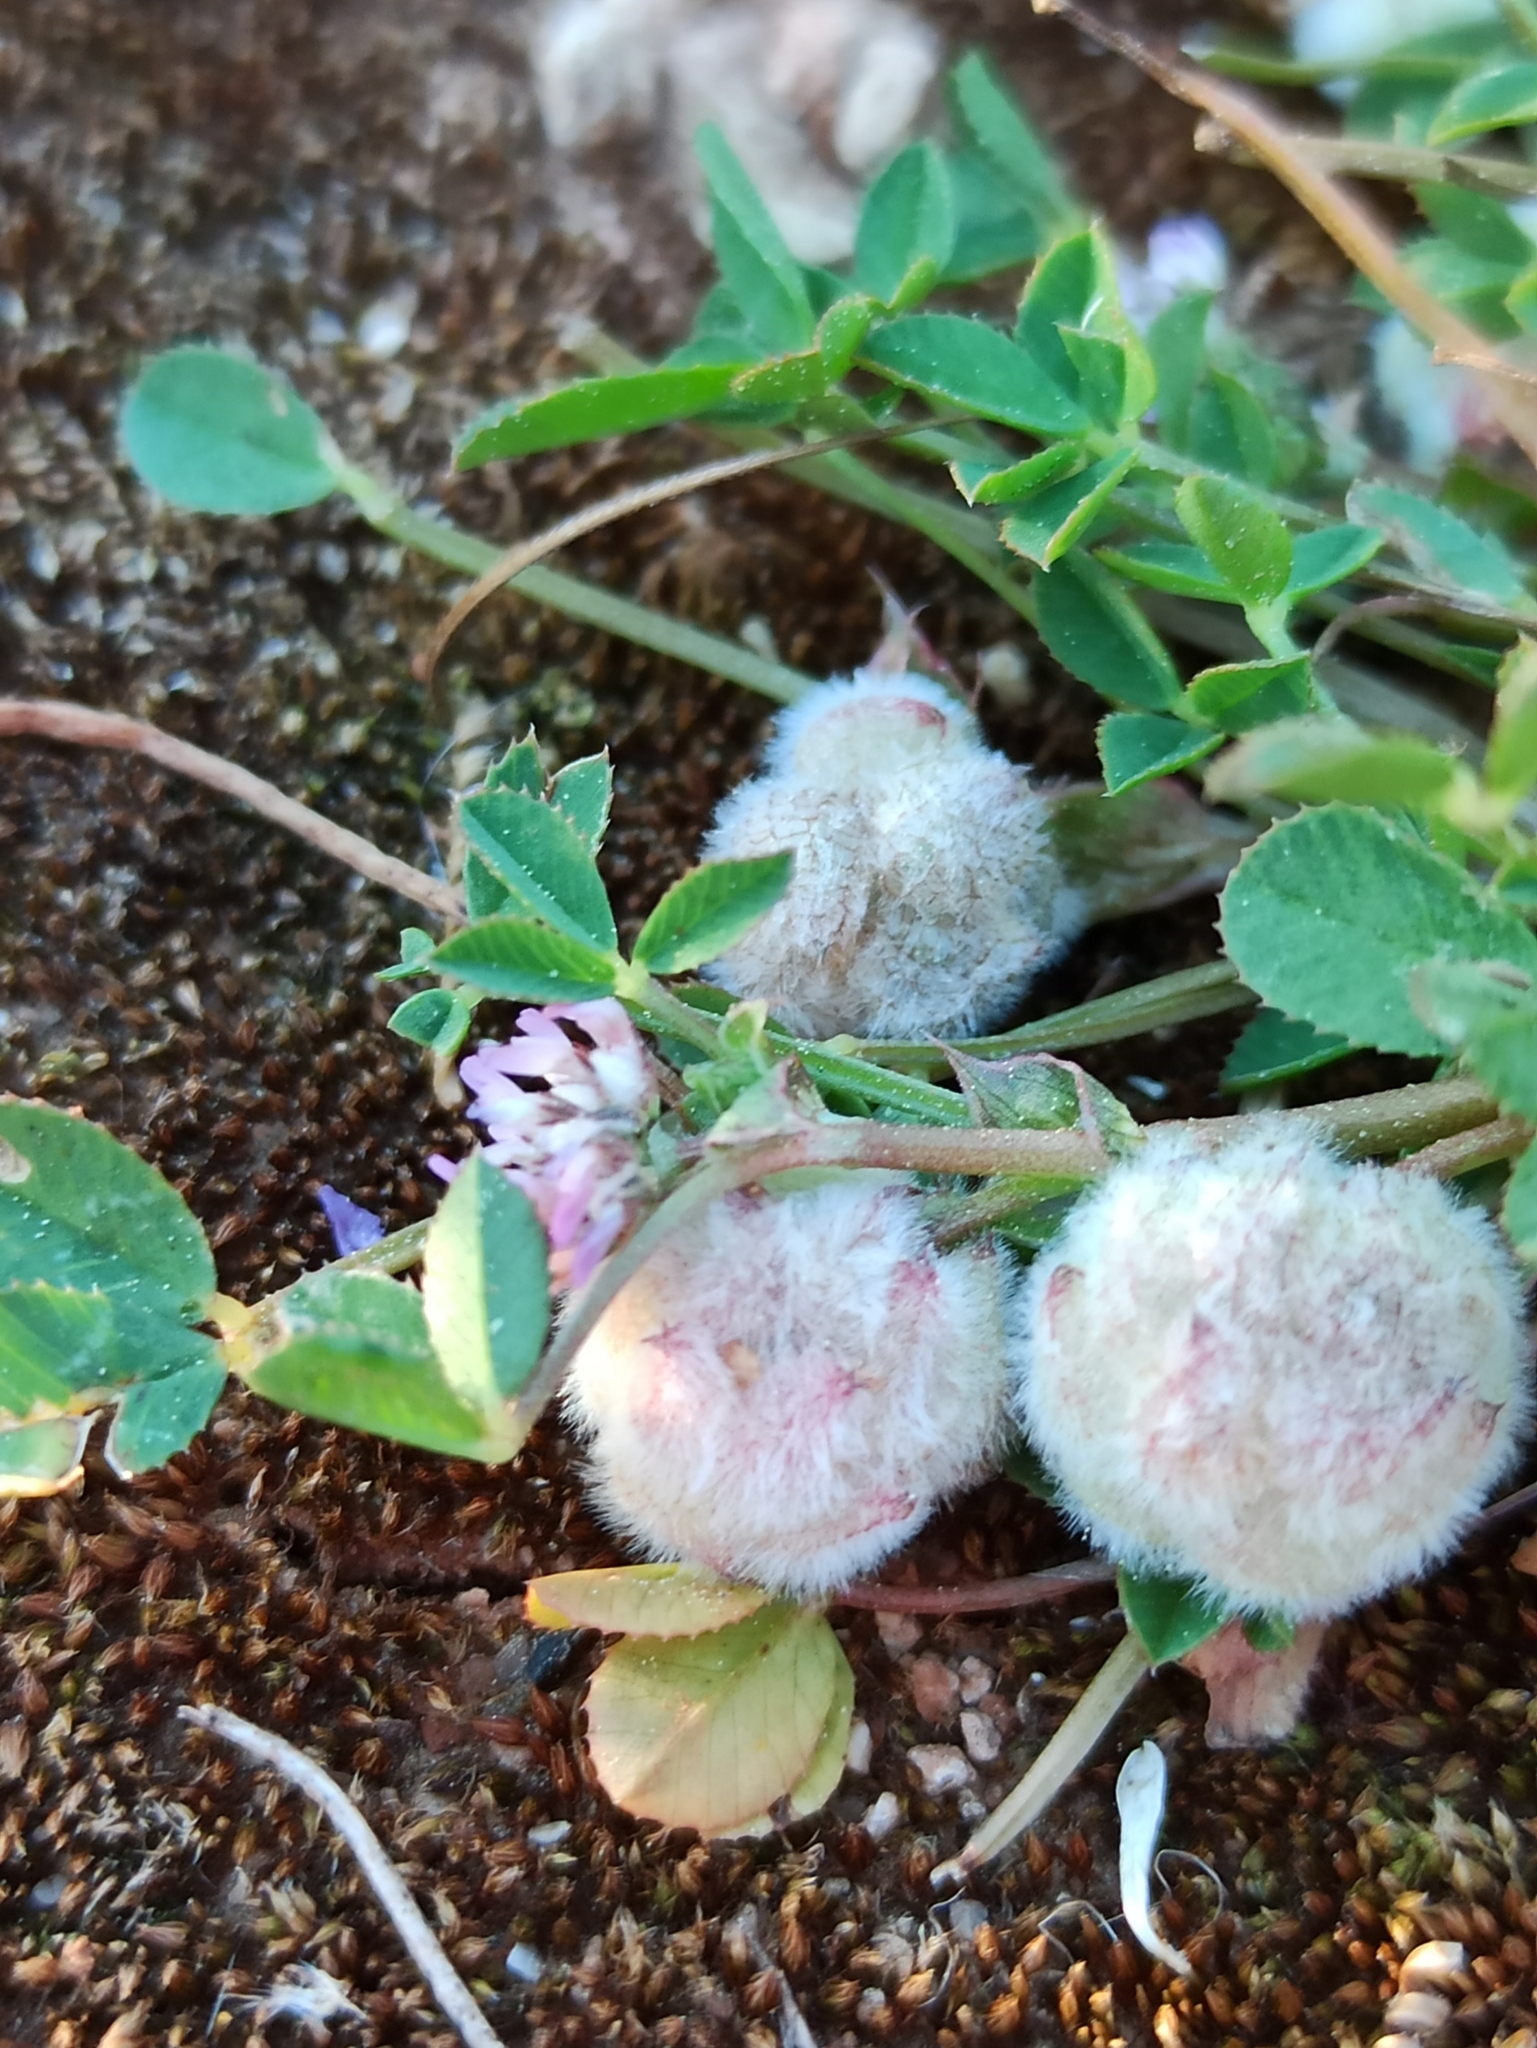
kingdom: Plantae
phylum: Tracheophyta
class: Magnoliopsida
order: Fabales
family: Fabaceae
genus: Trifolium
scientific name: Trifolium tomentosum
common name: Woolly clover
